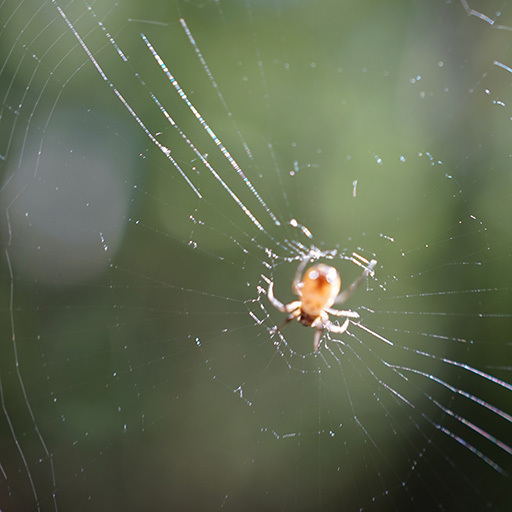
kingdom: Animalia
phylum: Arthropoda
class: Arachnida
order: Araneae
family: Araneidae
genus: Micrathena
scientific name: Micrathena mitrata
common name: Orb weavers
